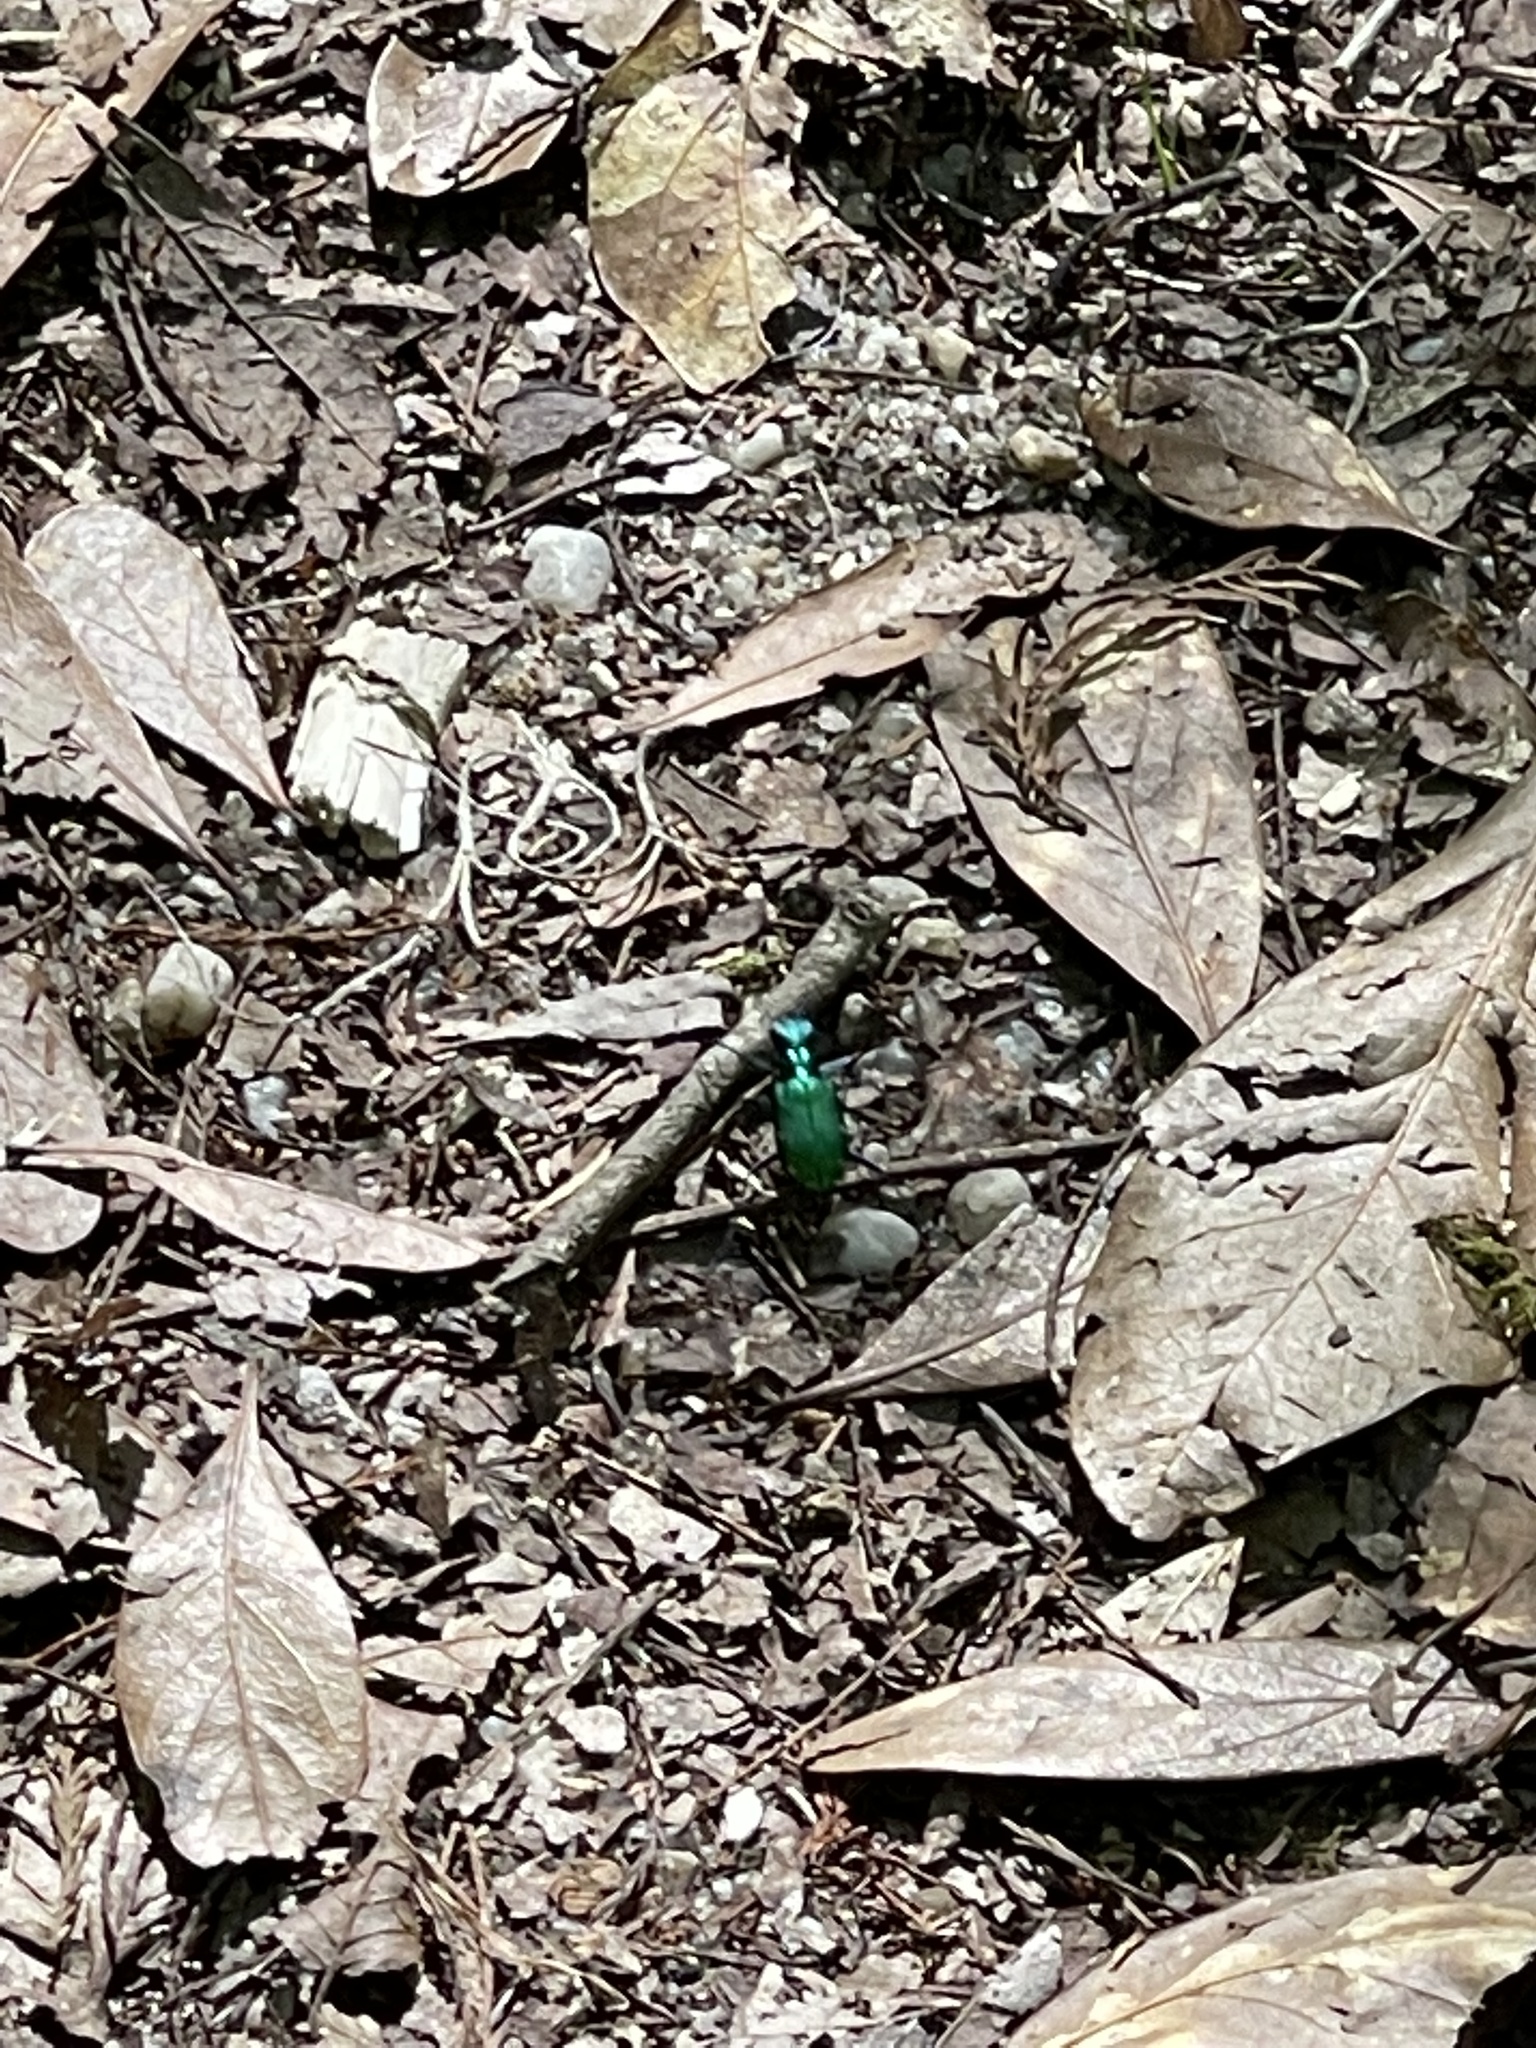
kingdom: Animalia
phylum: Arthropoda
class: Insecta
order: Coleoptera
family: Carabidae
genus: Cicindela
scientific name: Cicindela sexguttata
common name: Six-spotted tiger beetle
